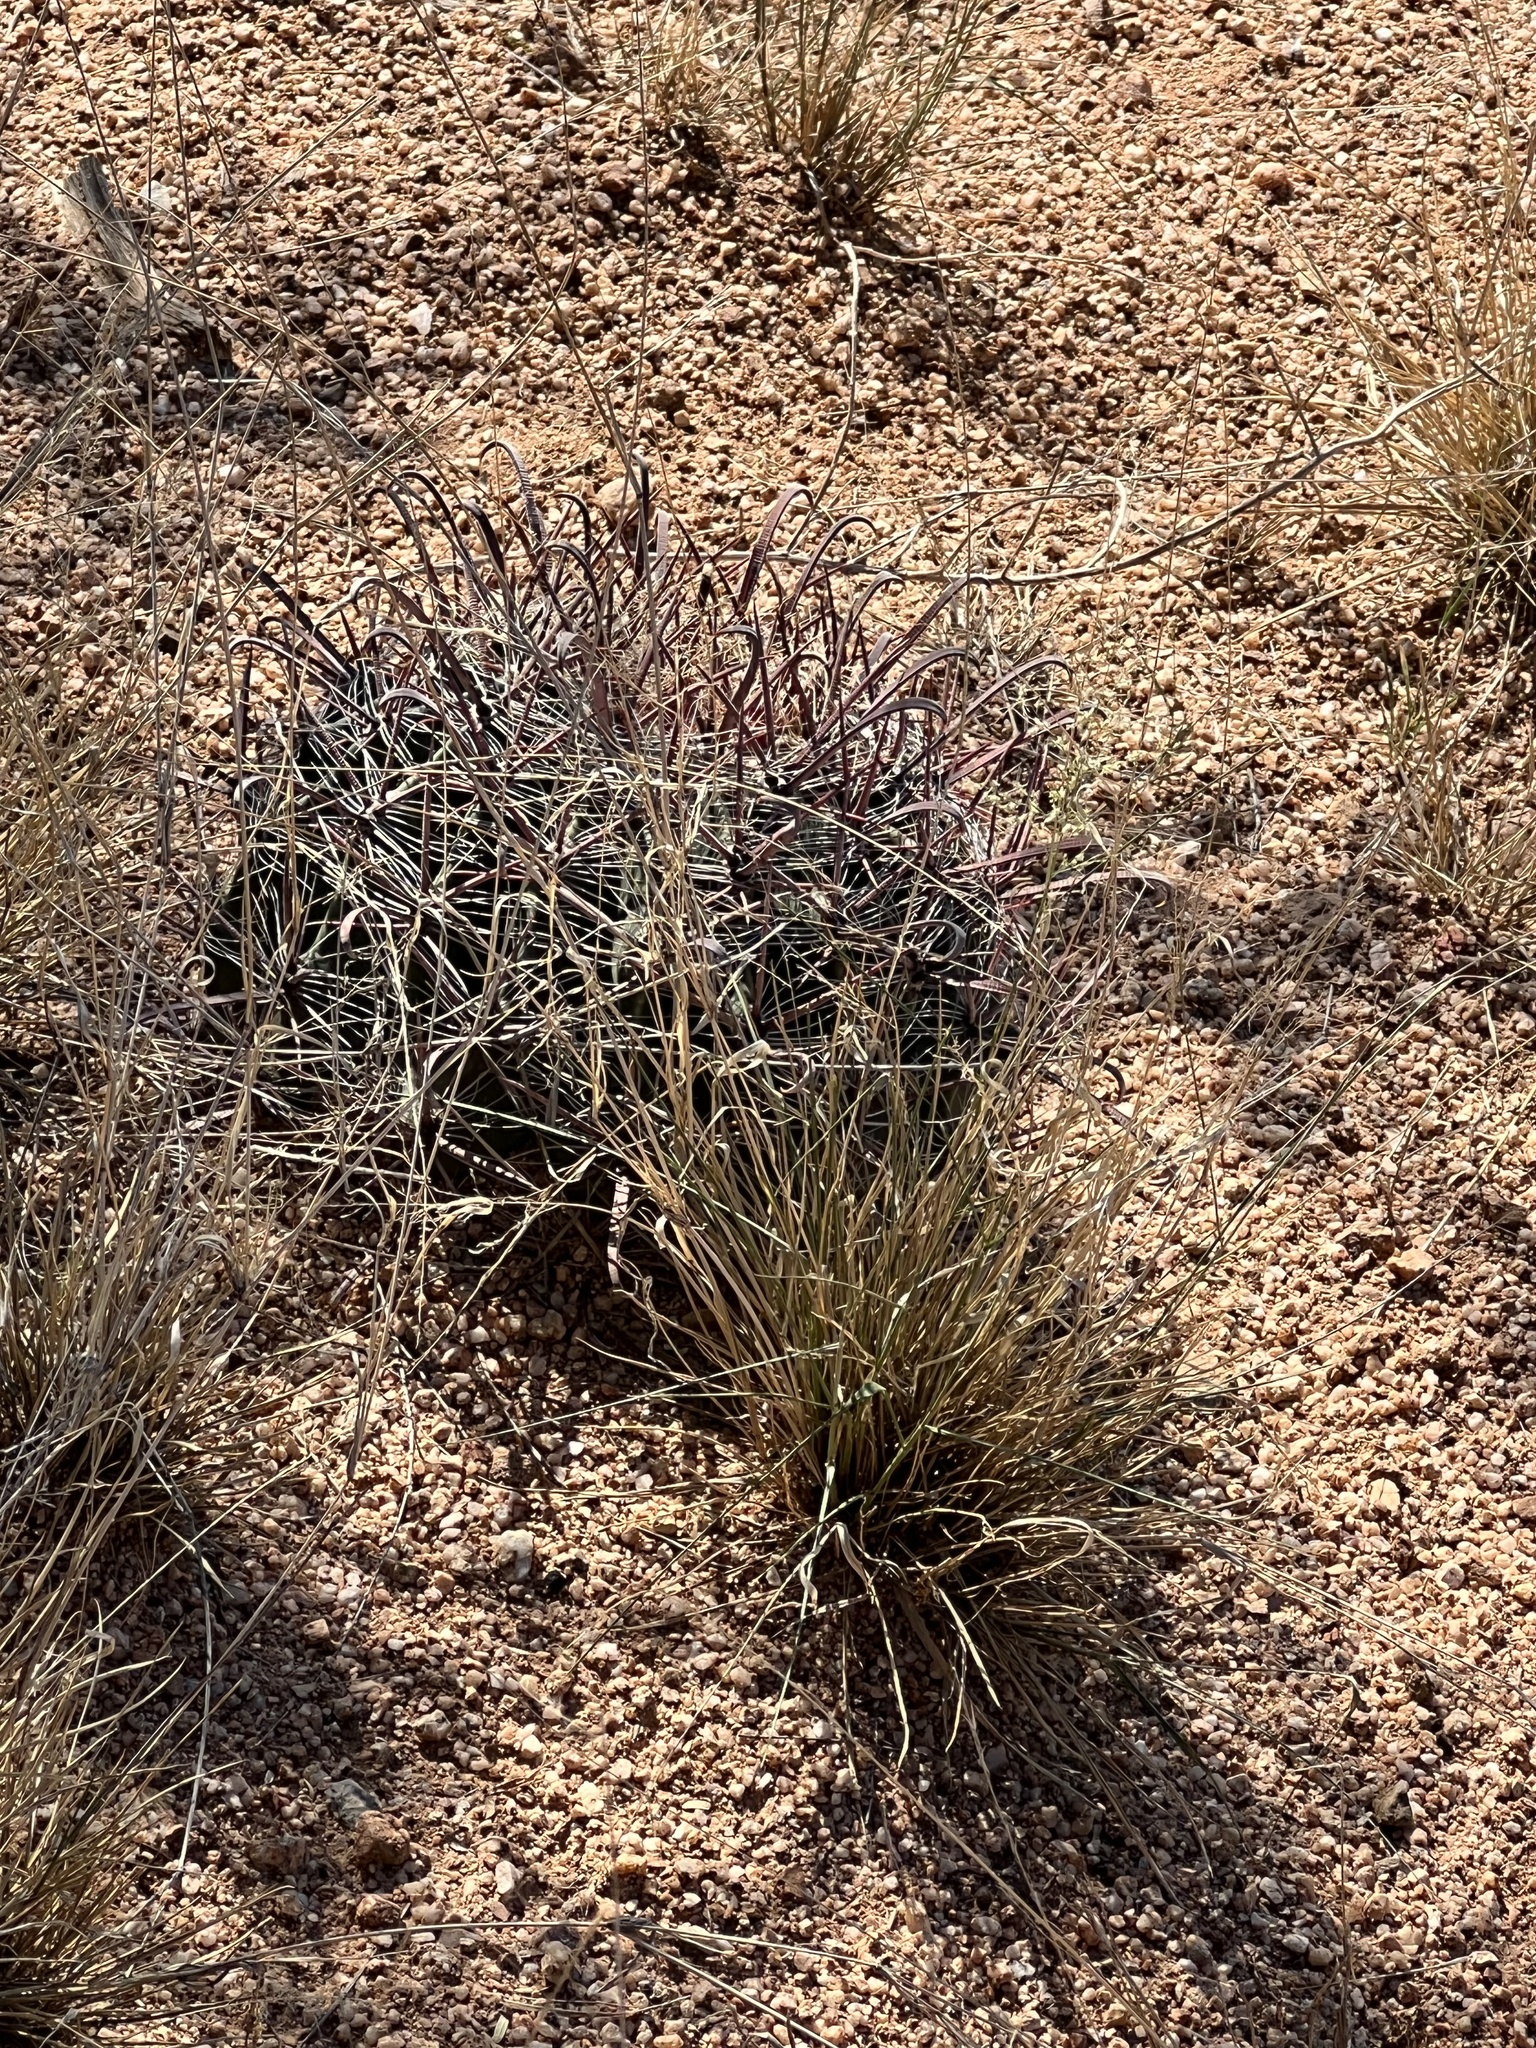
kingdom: Plantae
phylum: Tracheophyta
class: Magnoliopsida
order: Caryophyllales
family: Cactaceae
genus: Ferocactus
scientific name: Ferocactus wislizeni
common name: Candy barrel cactus
